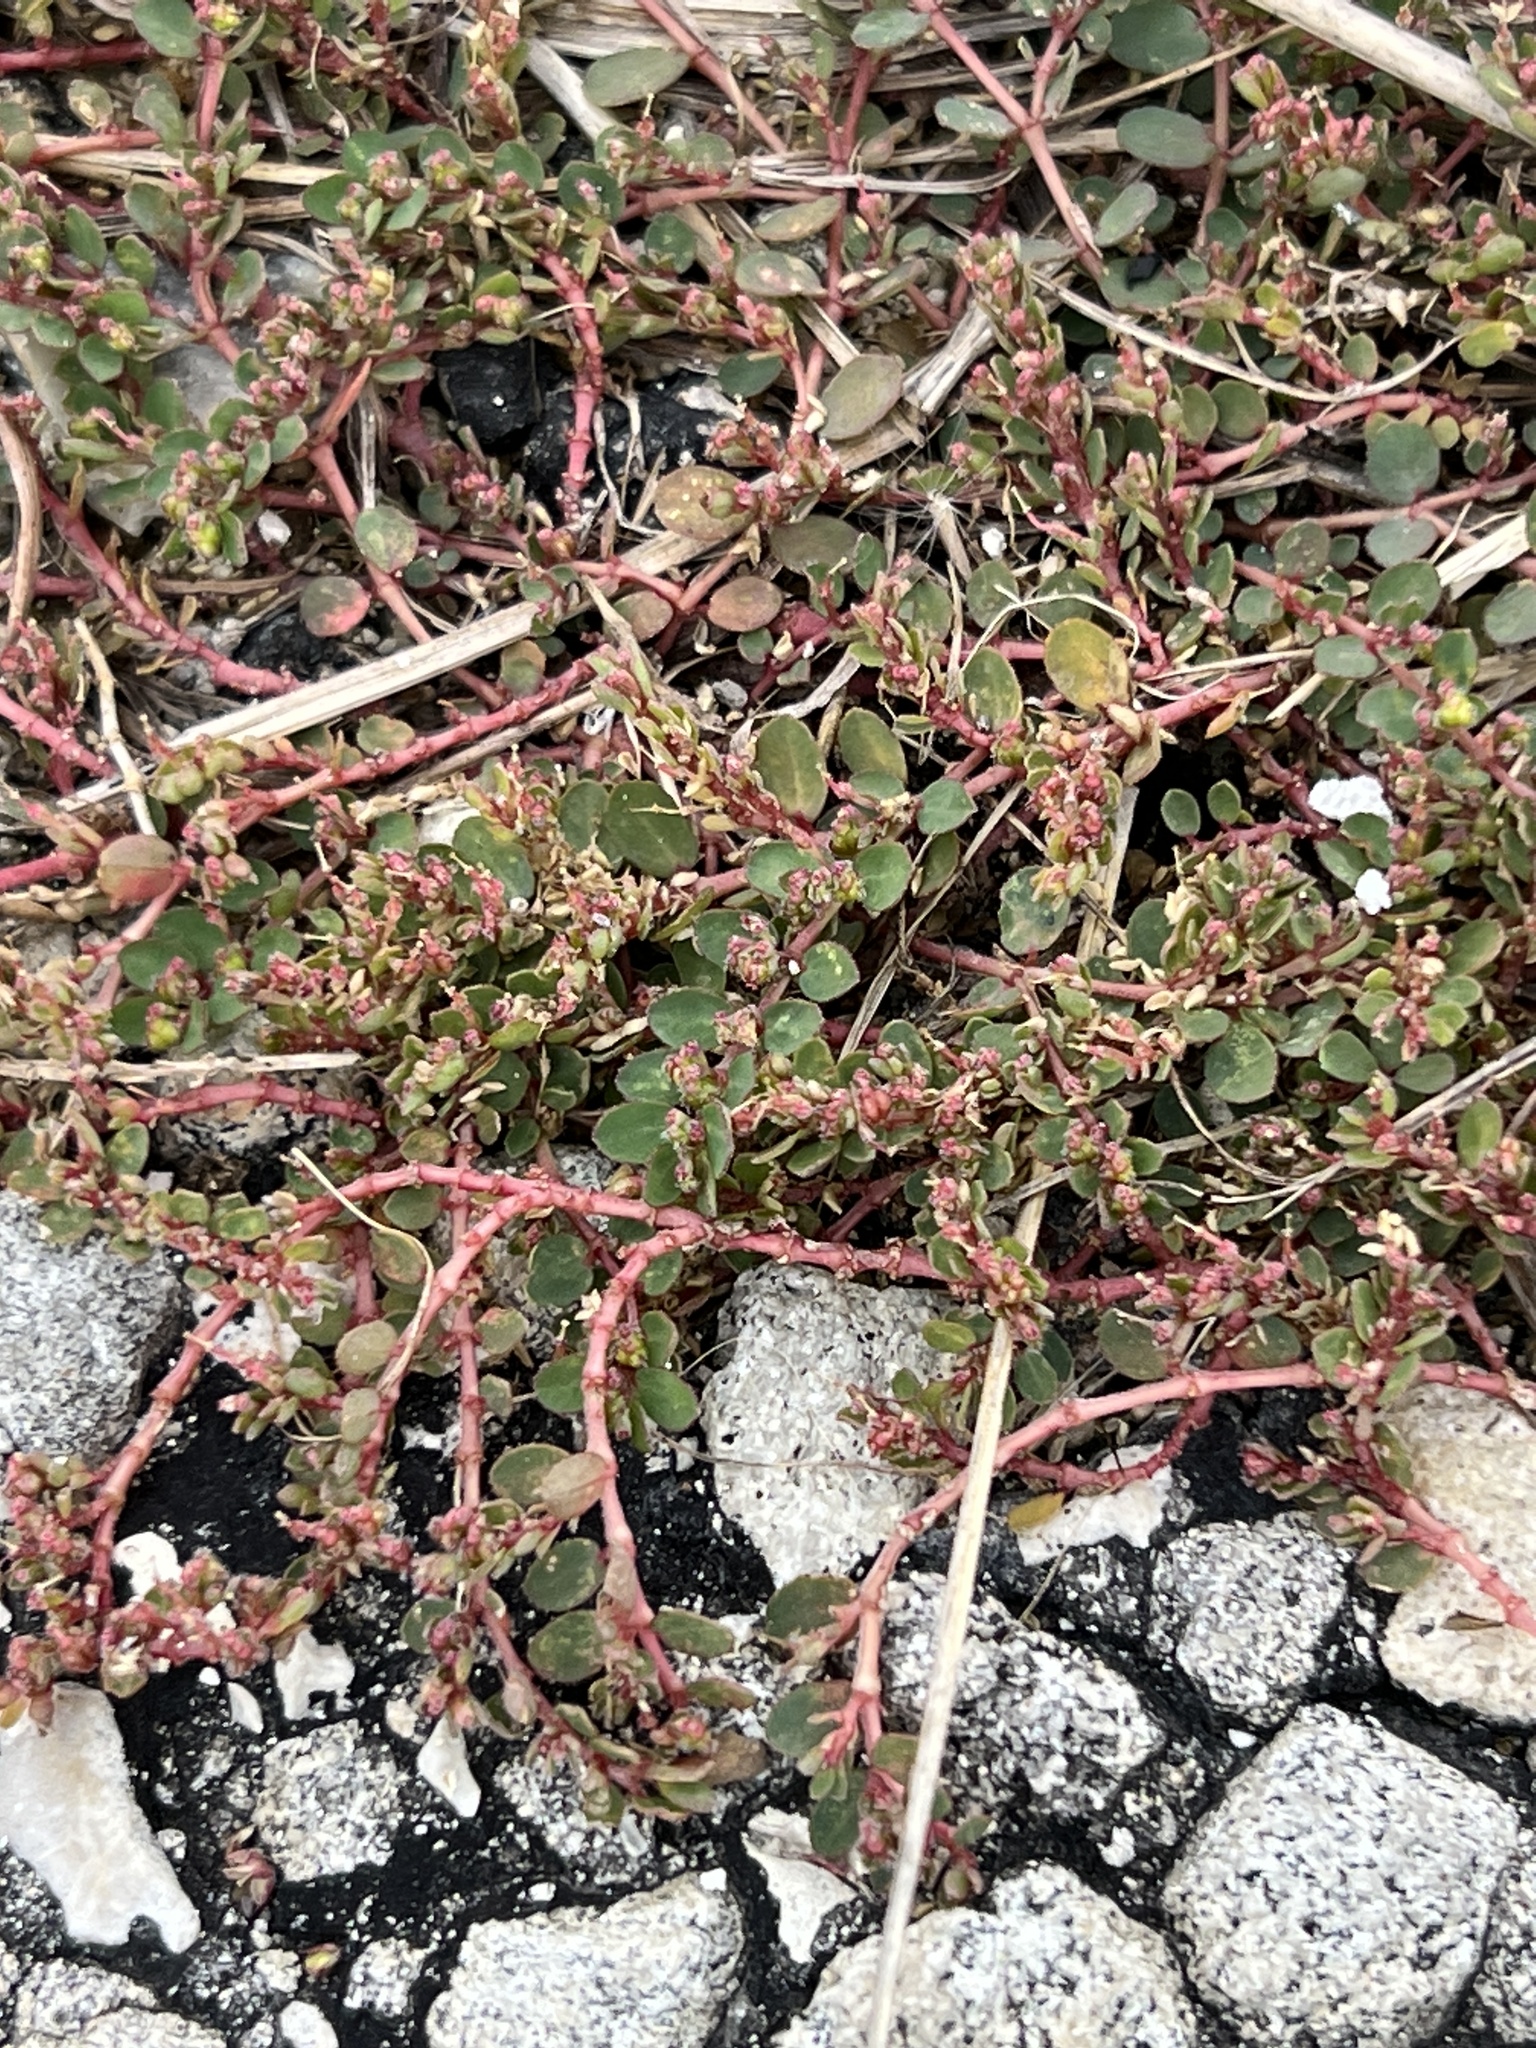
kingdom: Plantae
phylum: Tracheophyta
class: Magnoliopsida
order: Malpighiales
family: Euphorbiaceae
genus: Euphorbia
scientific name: Euphorbia prostrata
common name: Prostrate sandmat
